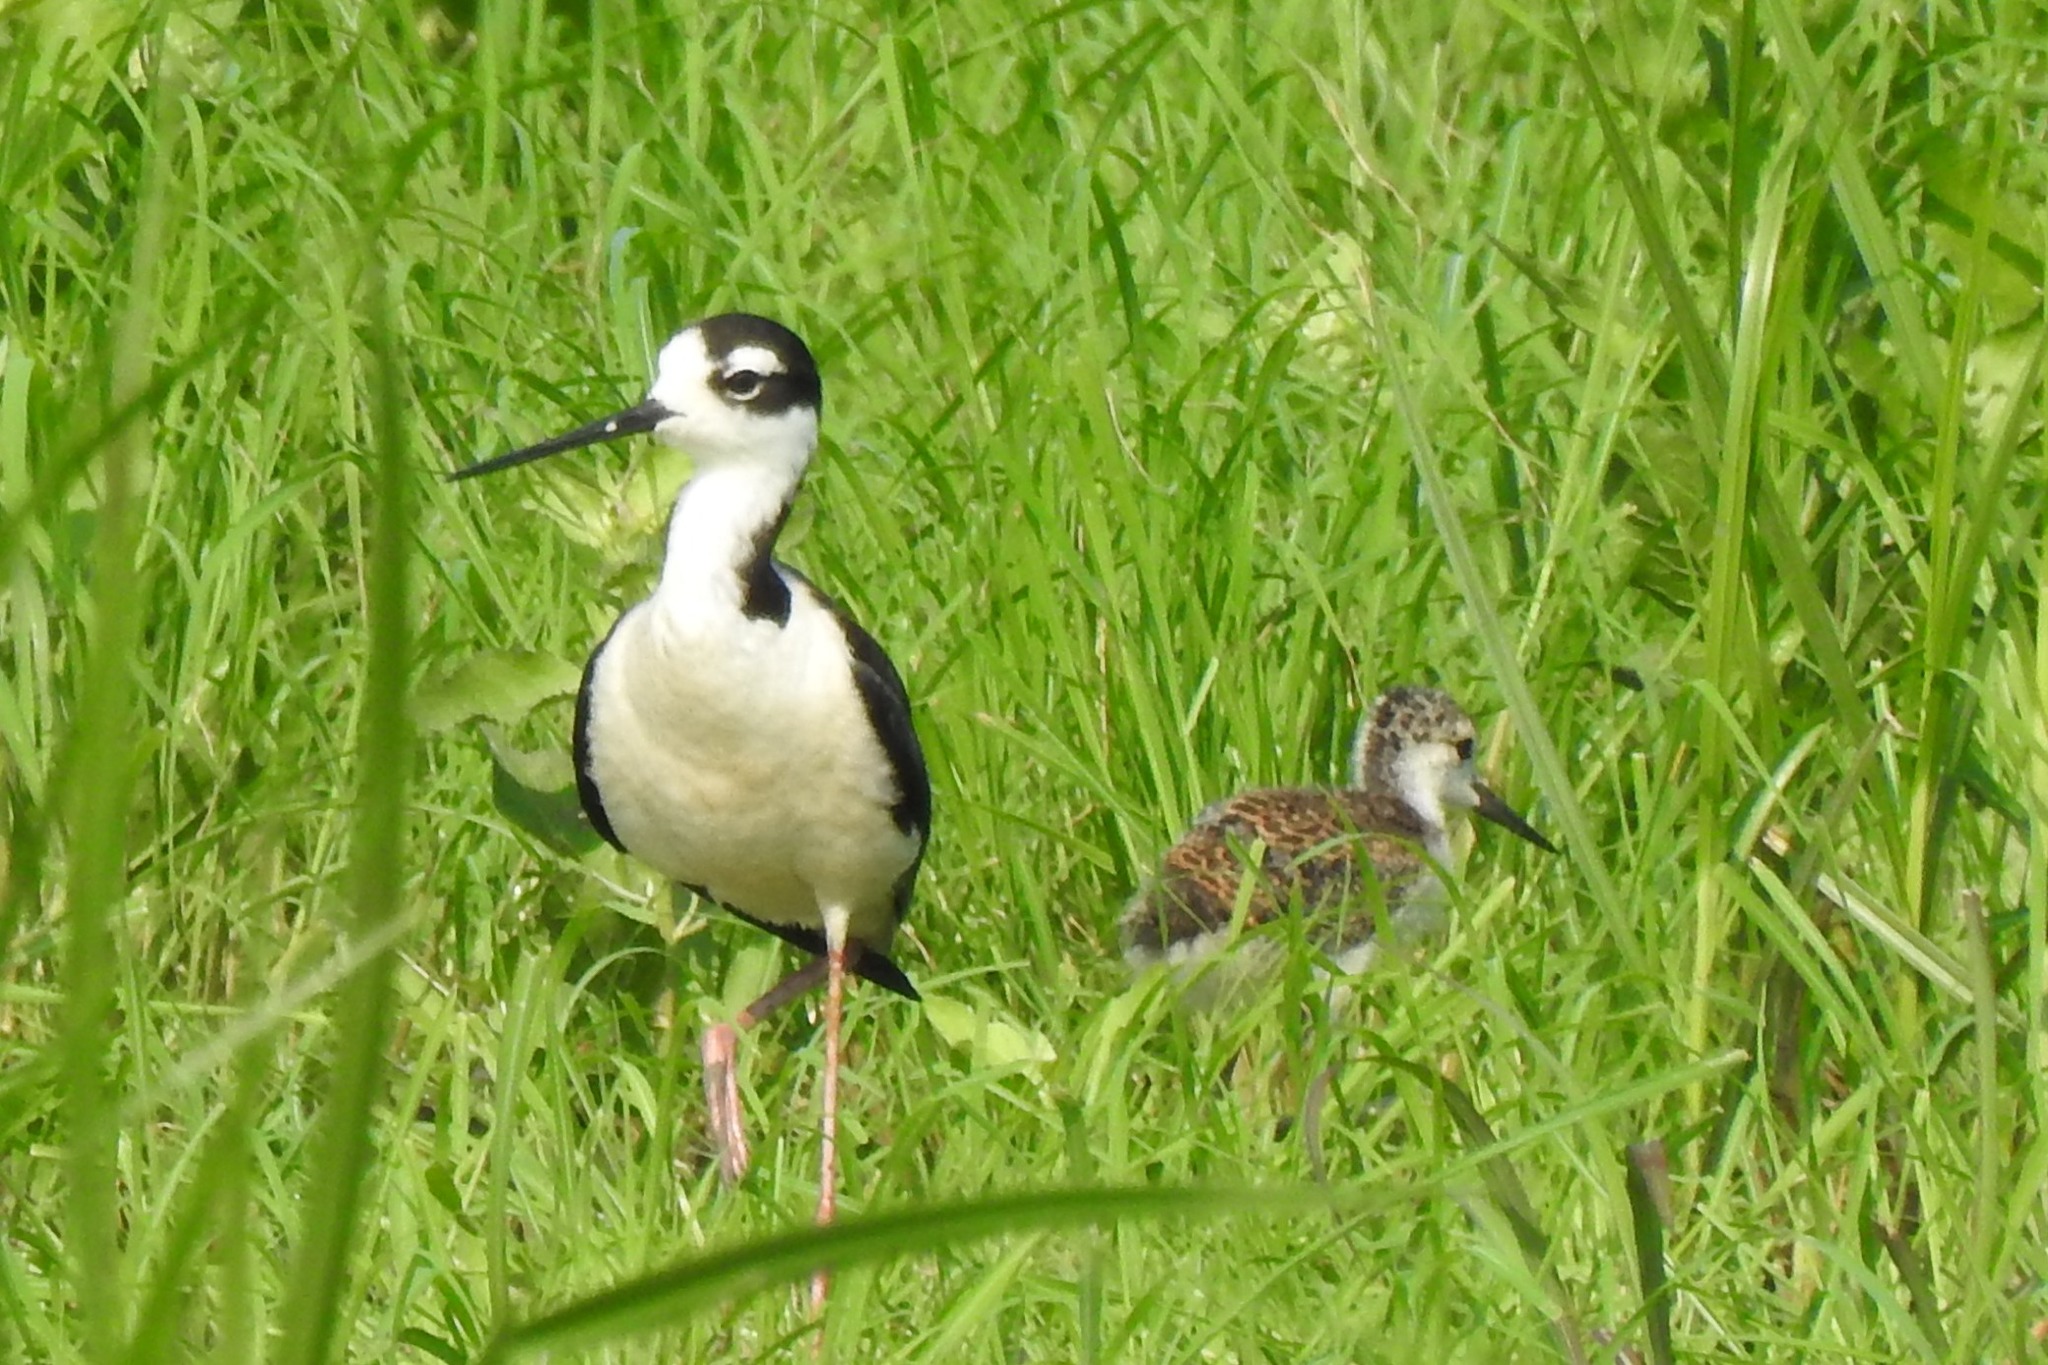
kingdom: Animalia
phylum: Chordata
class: Aves
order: Charadriiformes
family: Recurvirostridae
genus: Himantopus
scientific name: Himantopus mexicanus
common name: Black-necked stilt
